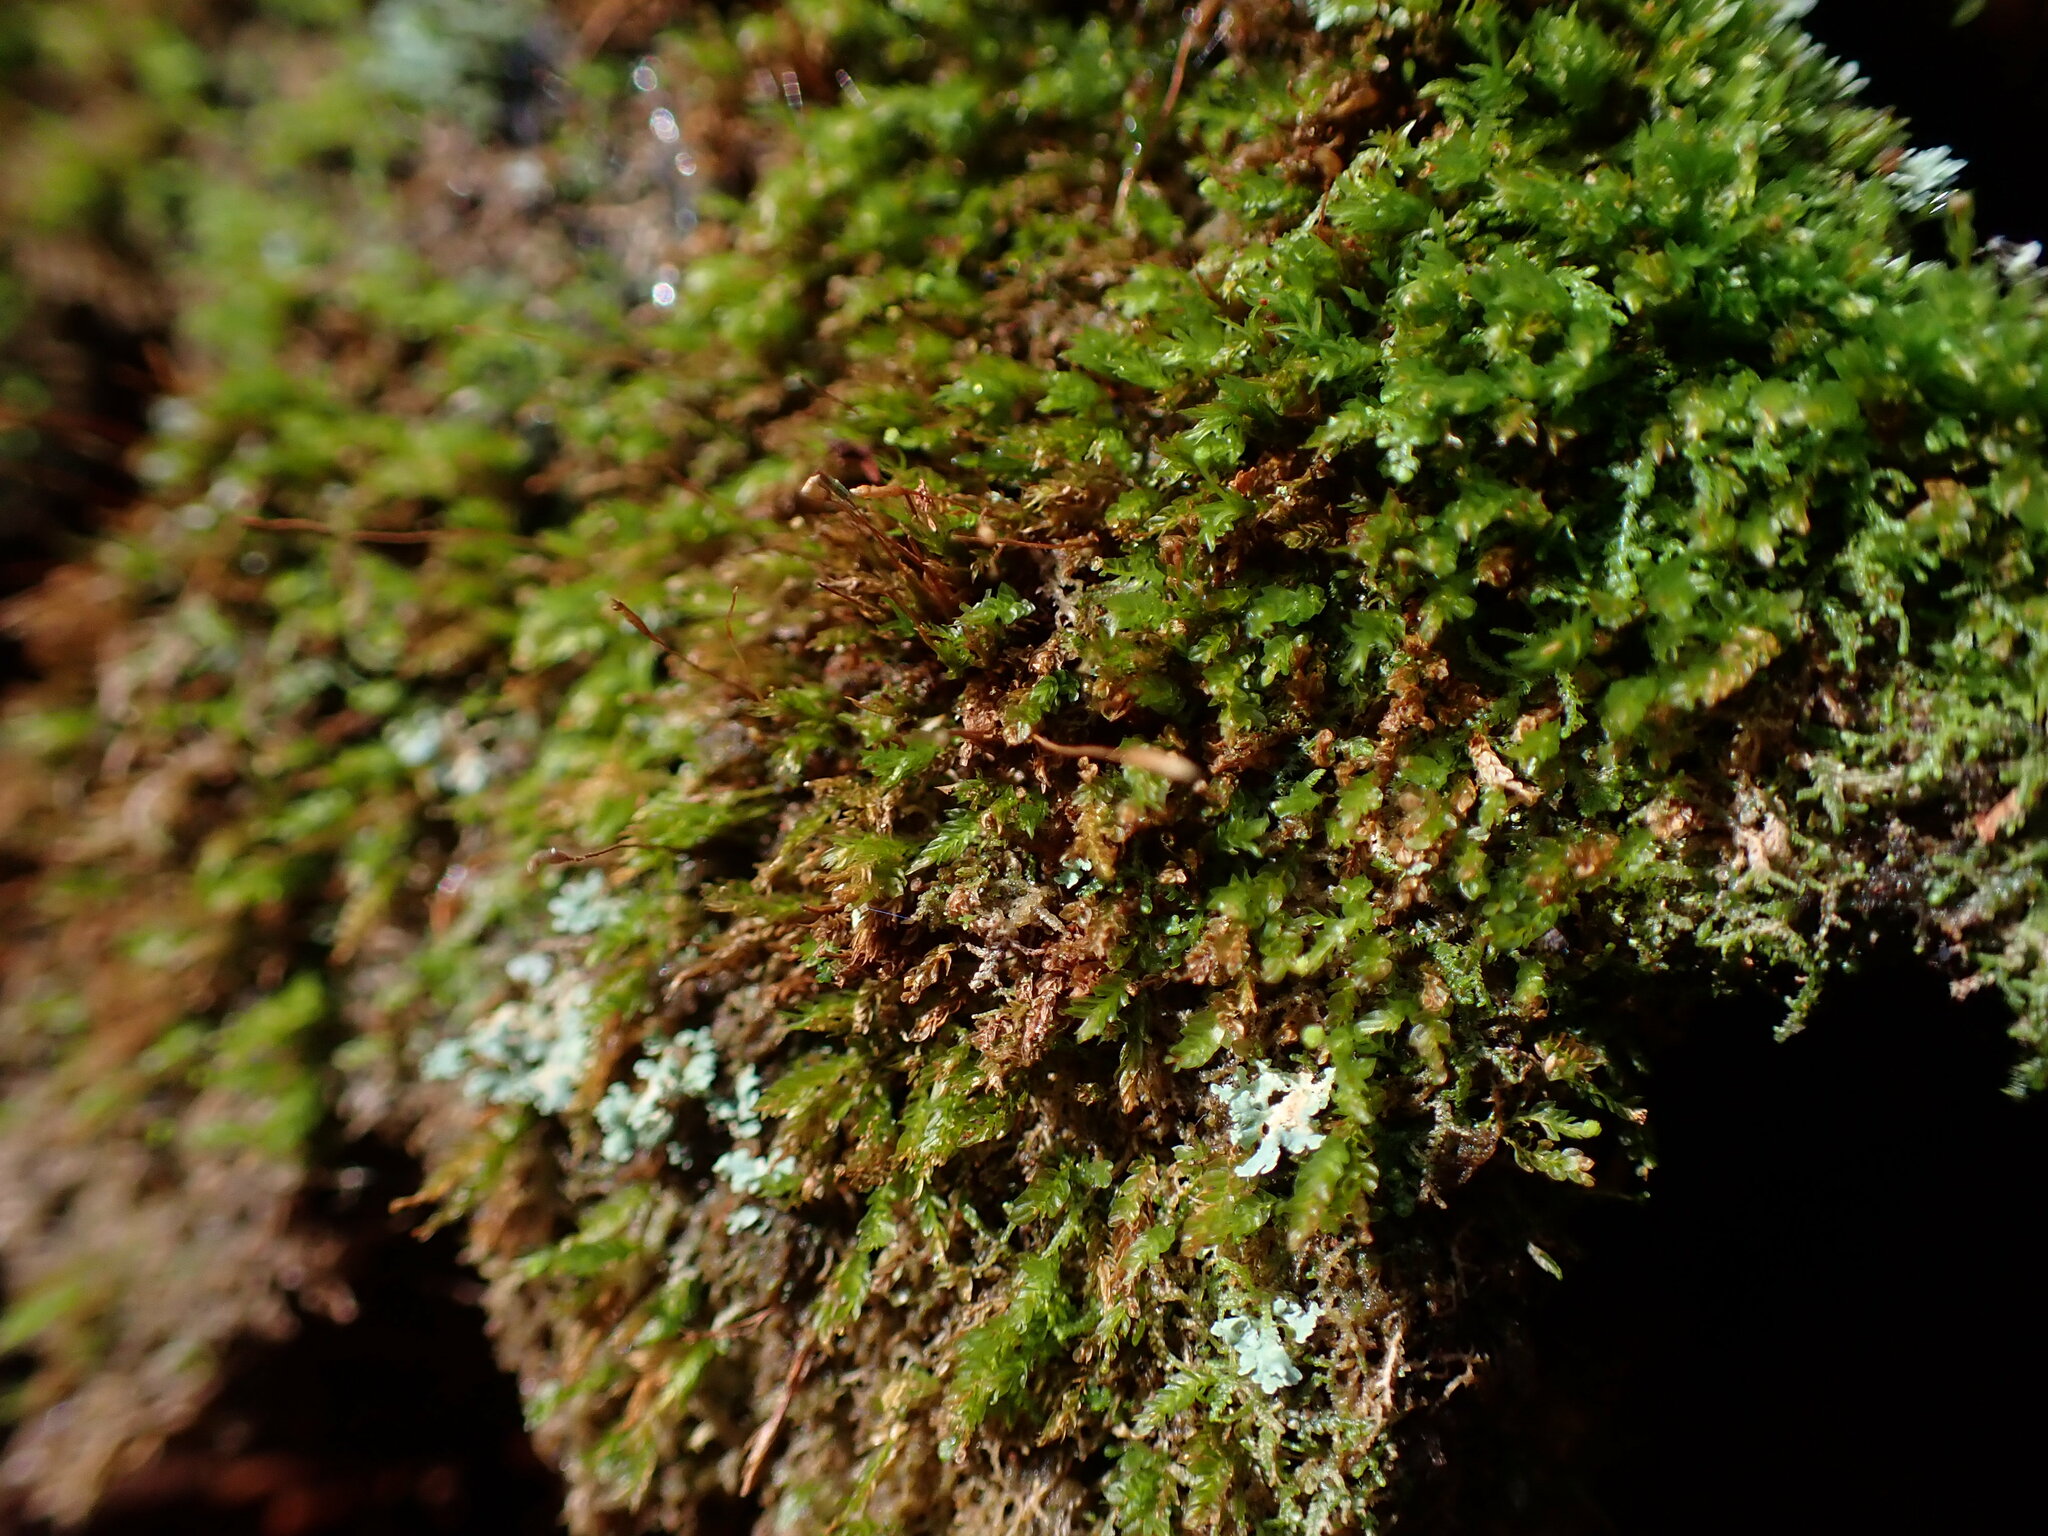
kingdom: Plantae
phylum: Bryophyta
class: Polytrichopsida
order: Tetraphidales
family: Tetraphidaceae
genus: Tetraphis
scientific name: Tetraphis pellucida
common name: Common four-toothed moss
